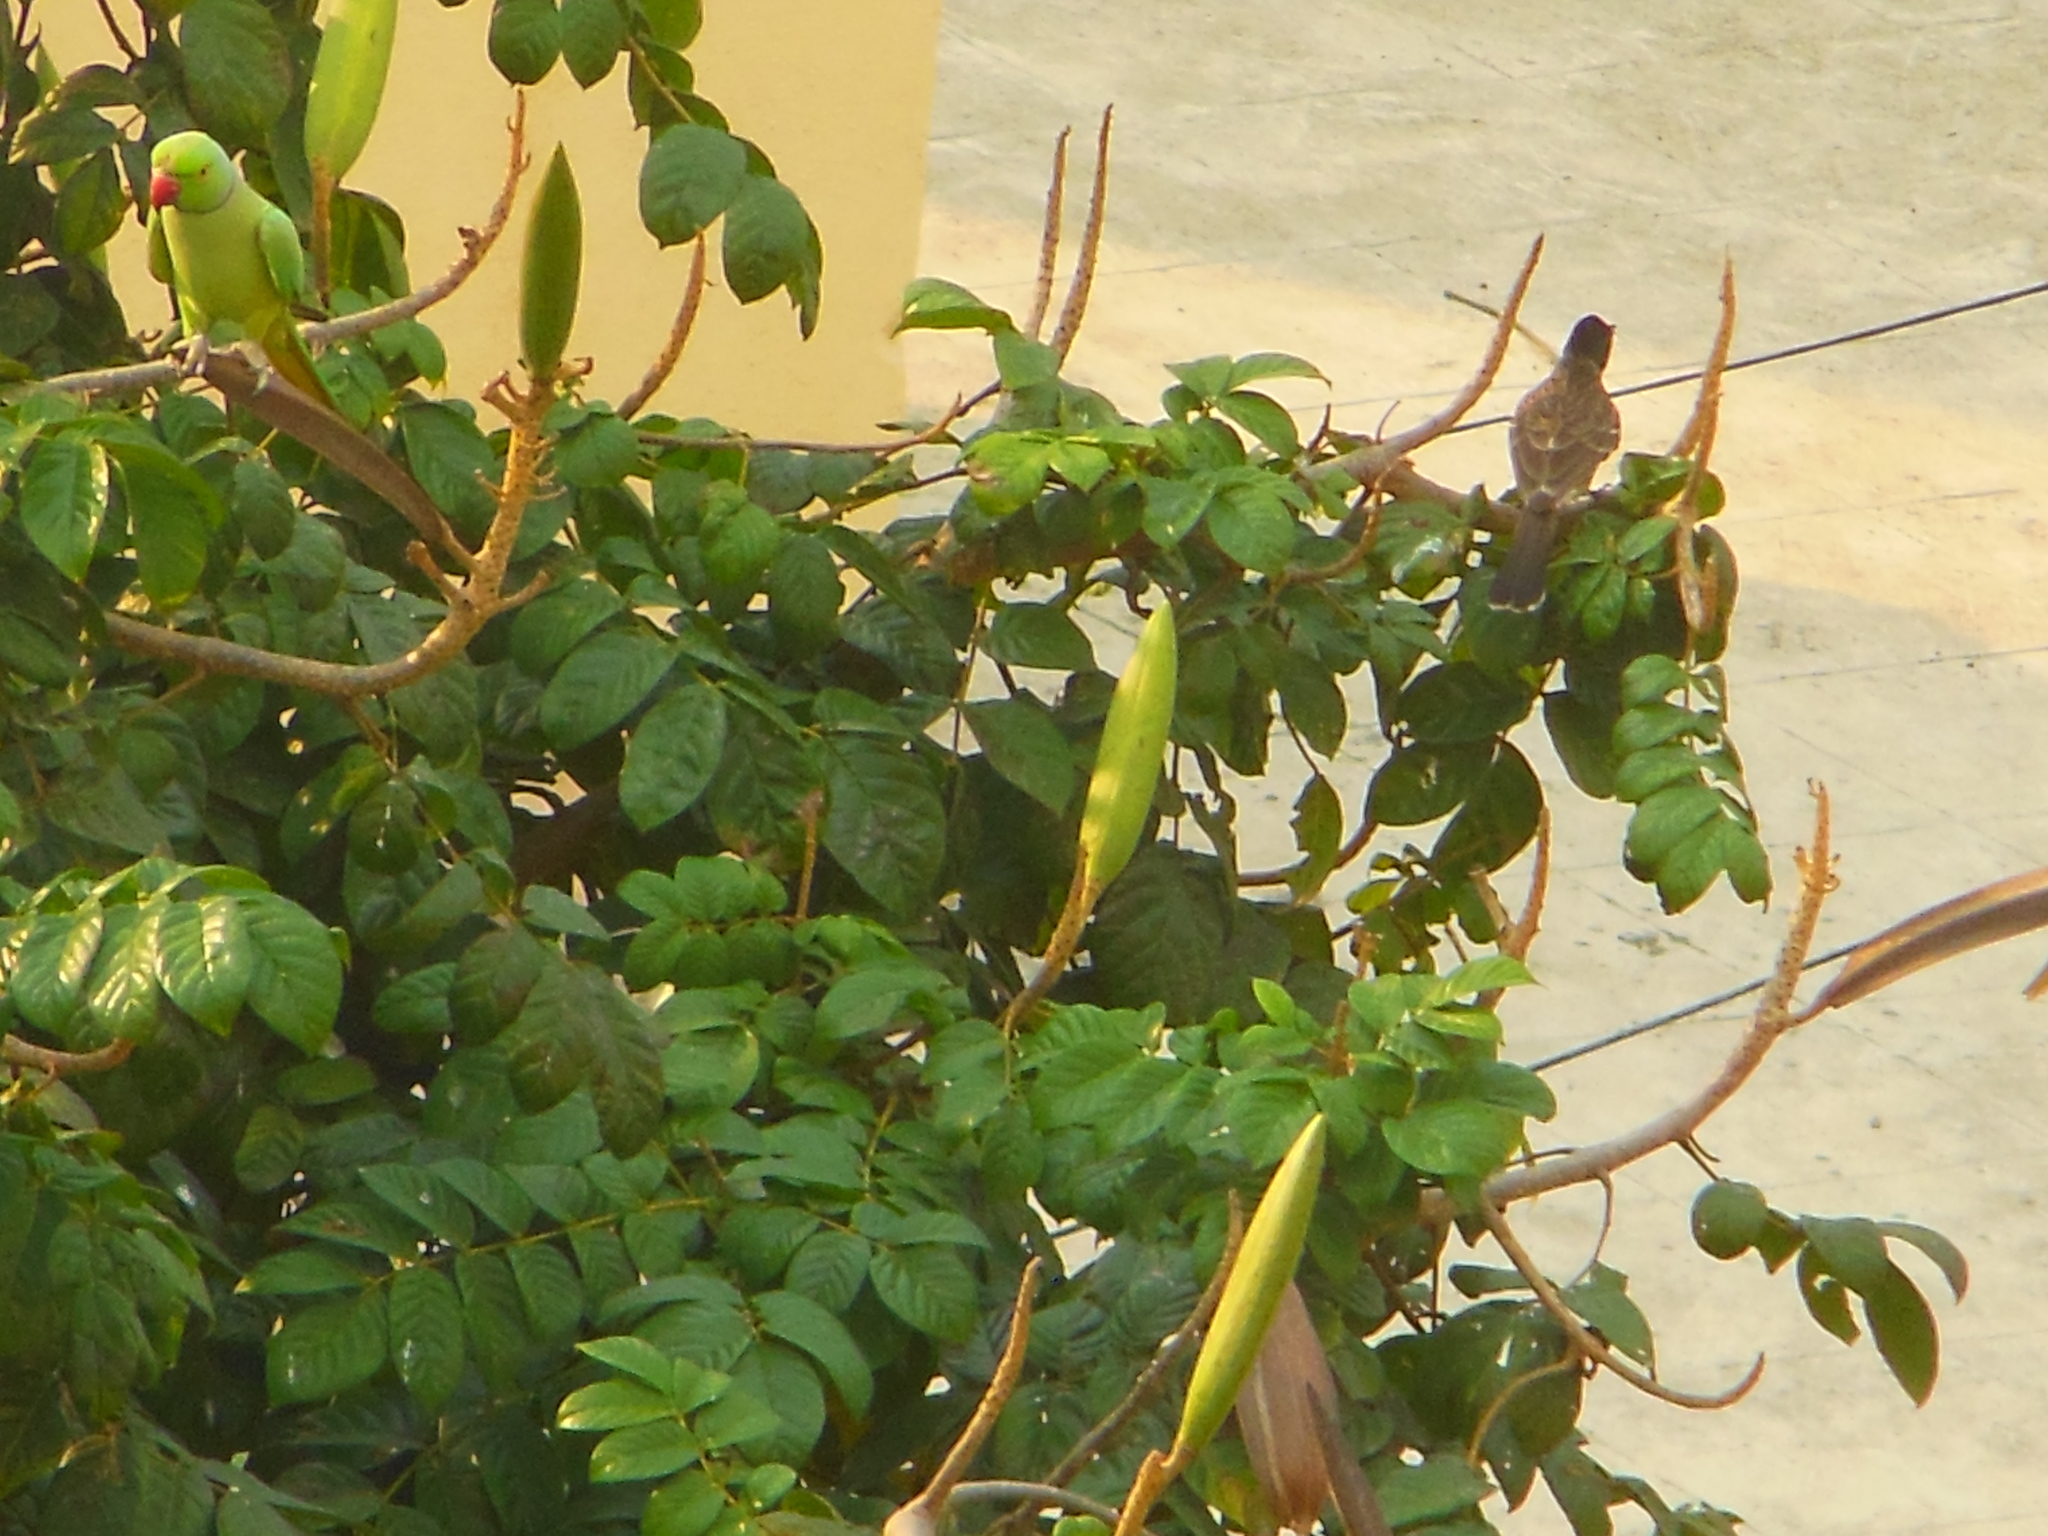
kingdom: Animalia
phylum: Chordata
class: Aves
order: Passeriformes
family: Pycnonotidae
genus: Pycnonotus
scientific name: Pycnonotus cafer
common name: Red-vented bulbul
